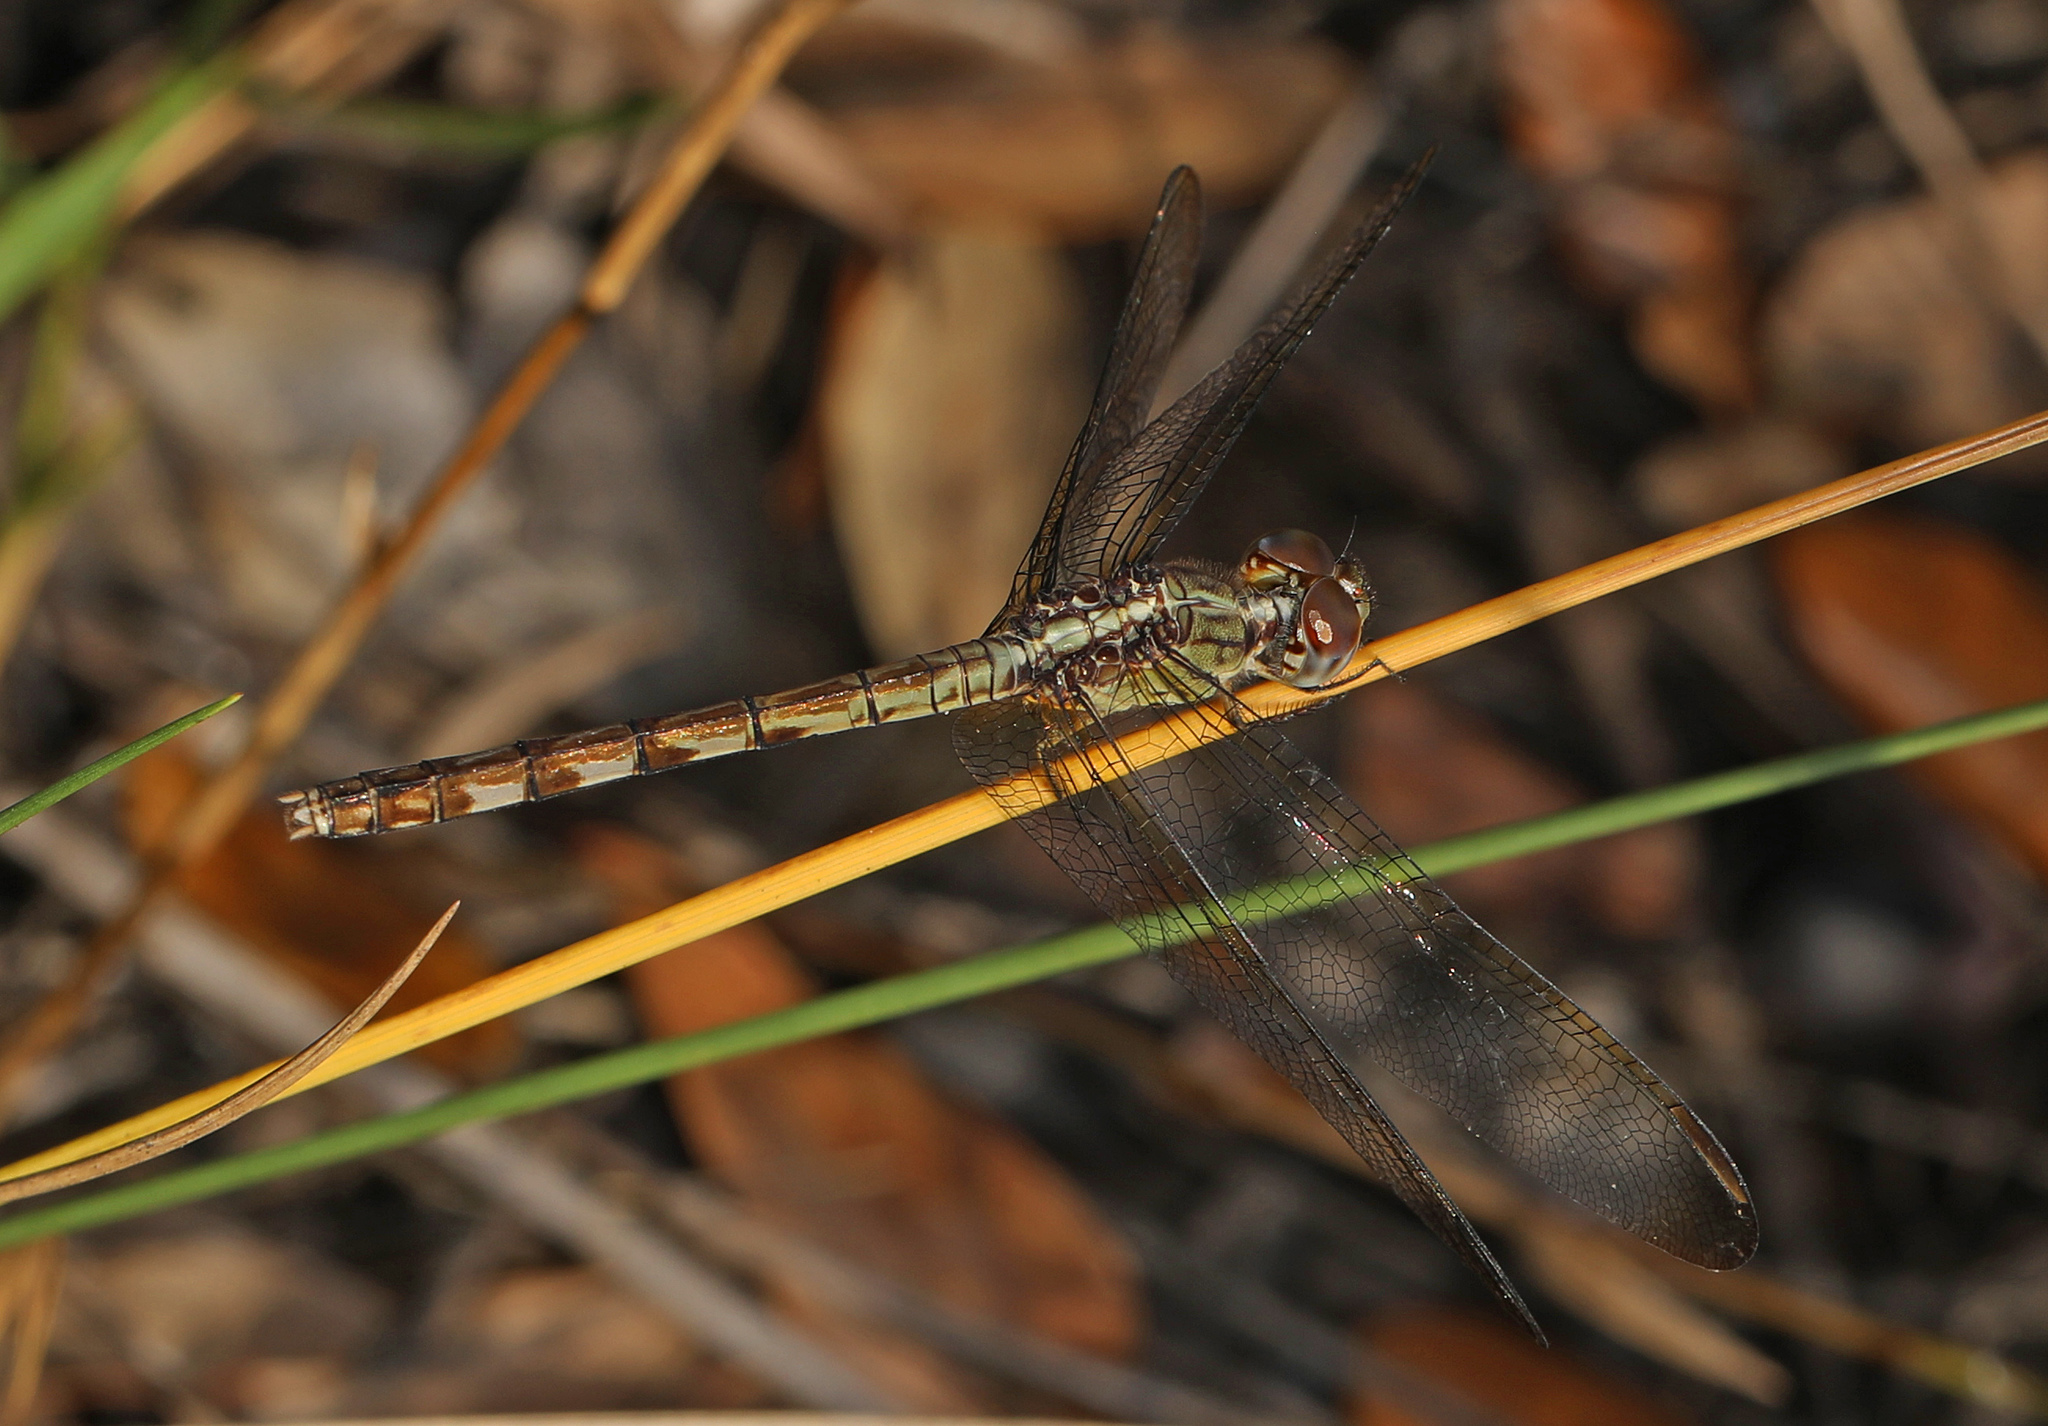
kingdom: Animalia
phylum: Arthropoda
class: Insecta
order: Odonata
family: Libellulidae
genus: Erythrodiplax
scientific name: Erythrodiplax umbrata
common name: Band-winged dragonlet
